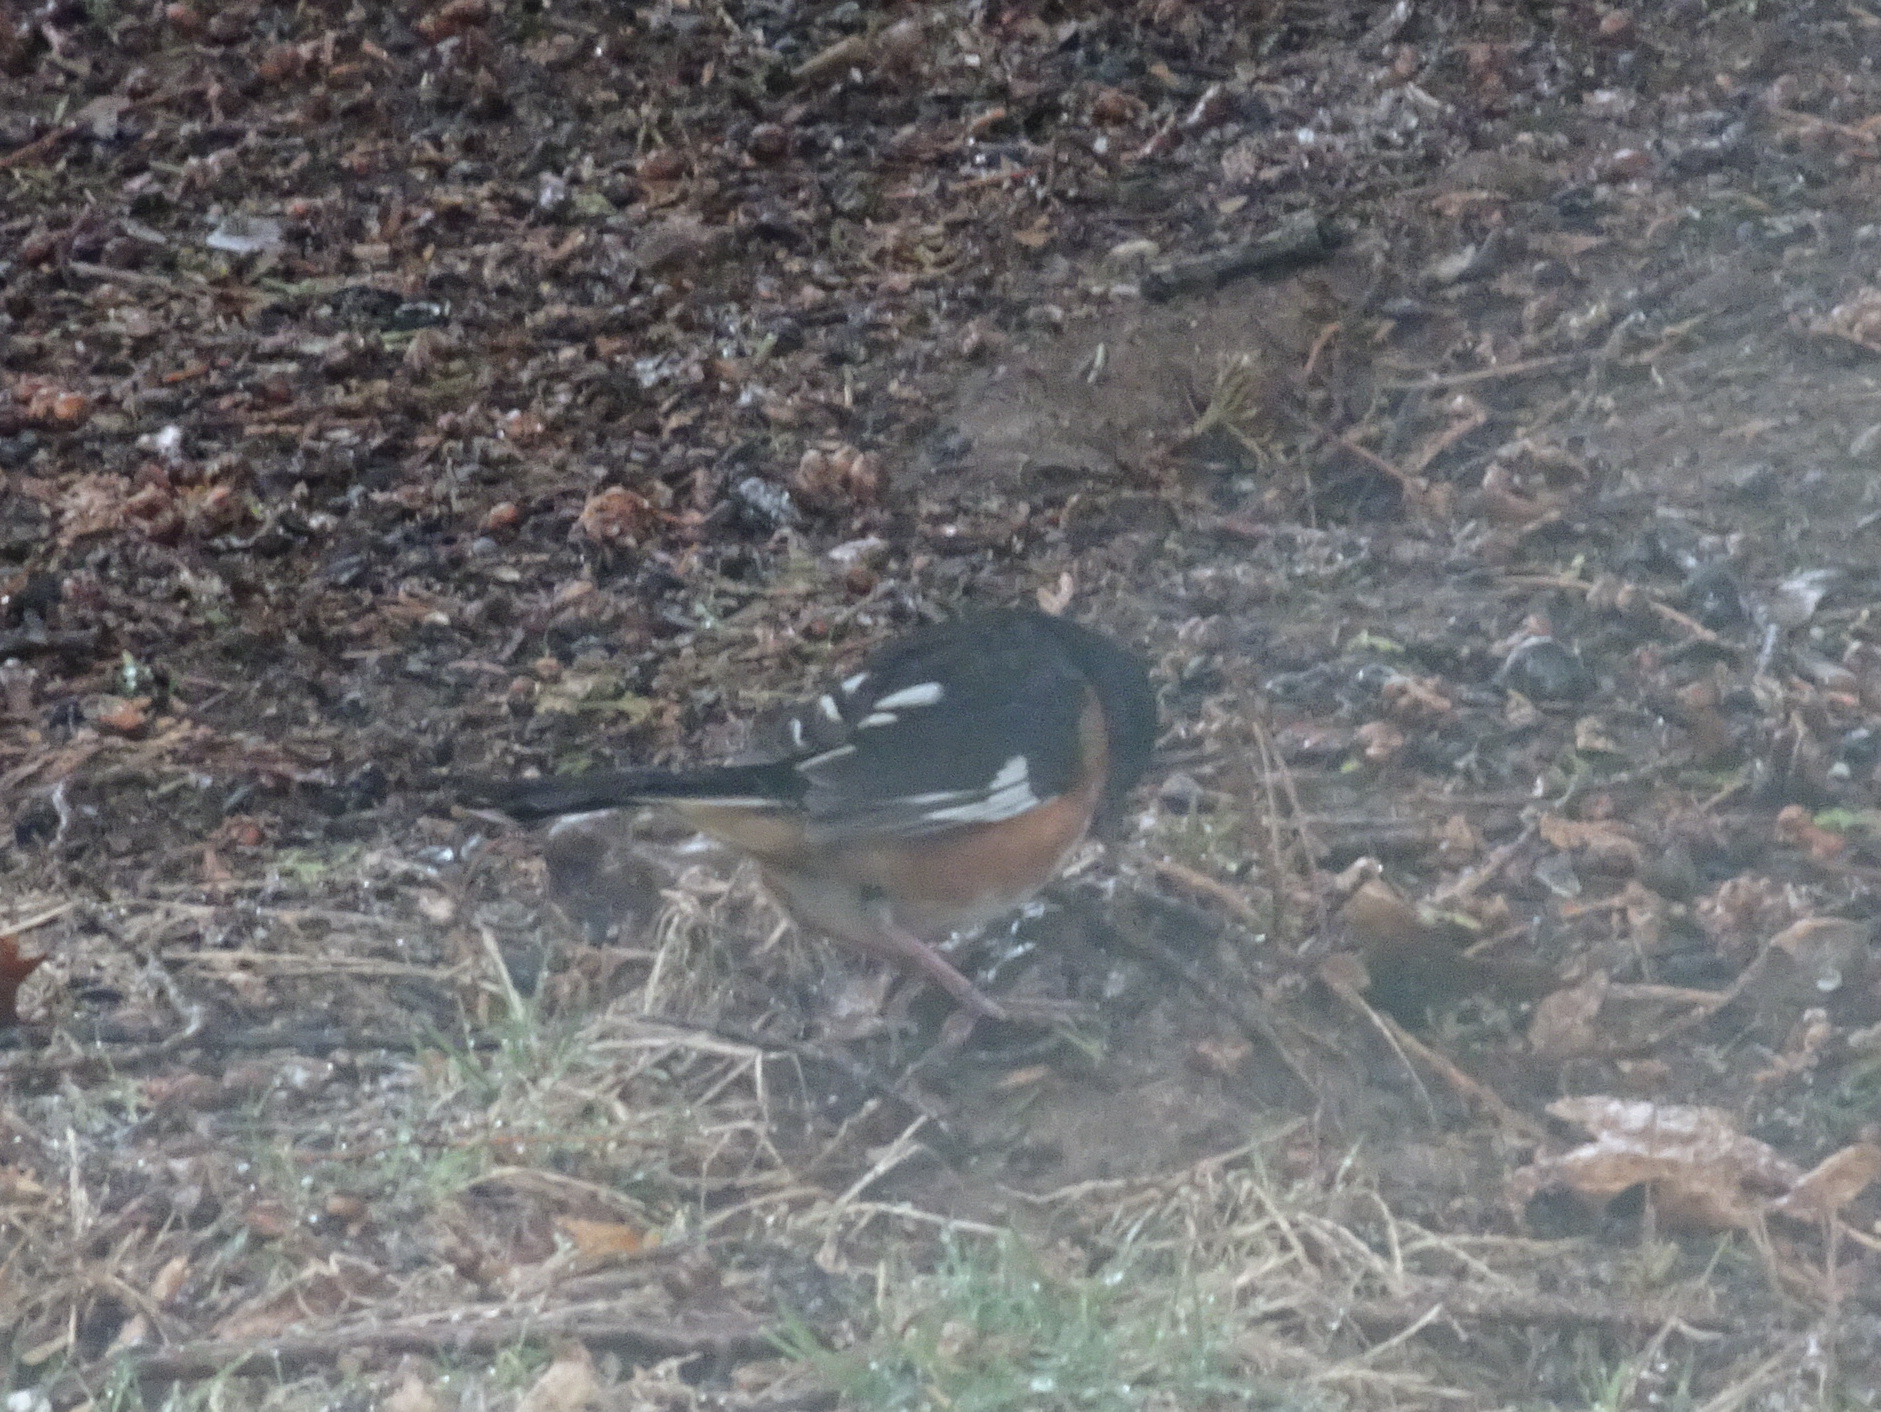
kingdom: Animalia
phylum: Chordata
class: Aves
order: Passeriformes
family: Passerellidae
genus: Pipilo
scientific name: Pipilo erythrophthalmus
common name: Eastern towhee
